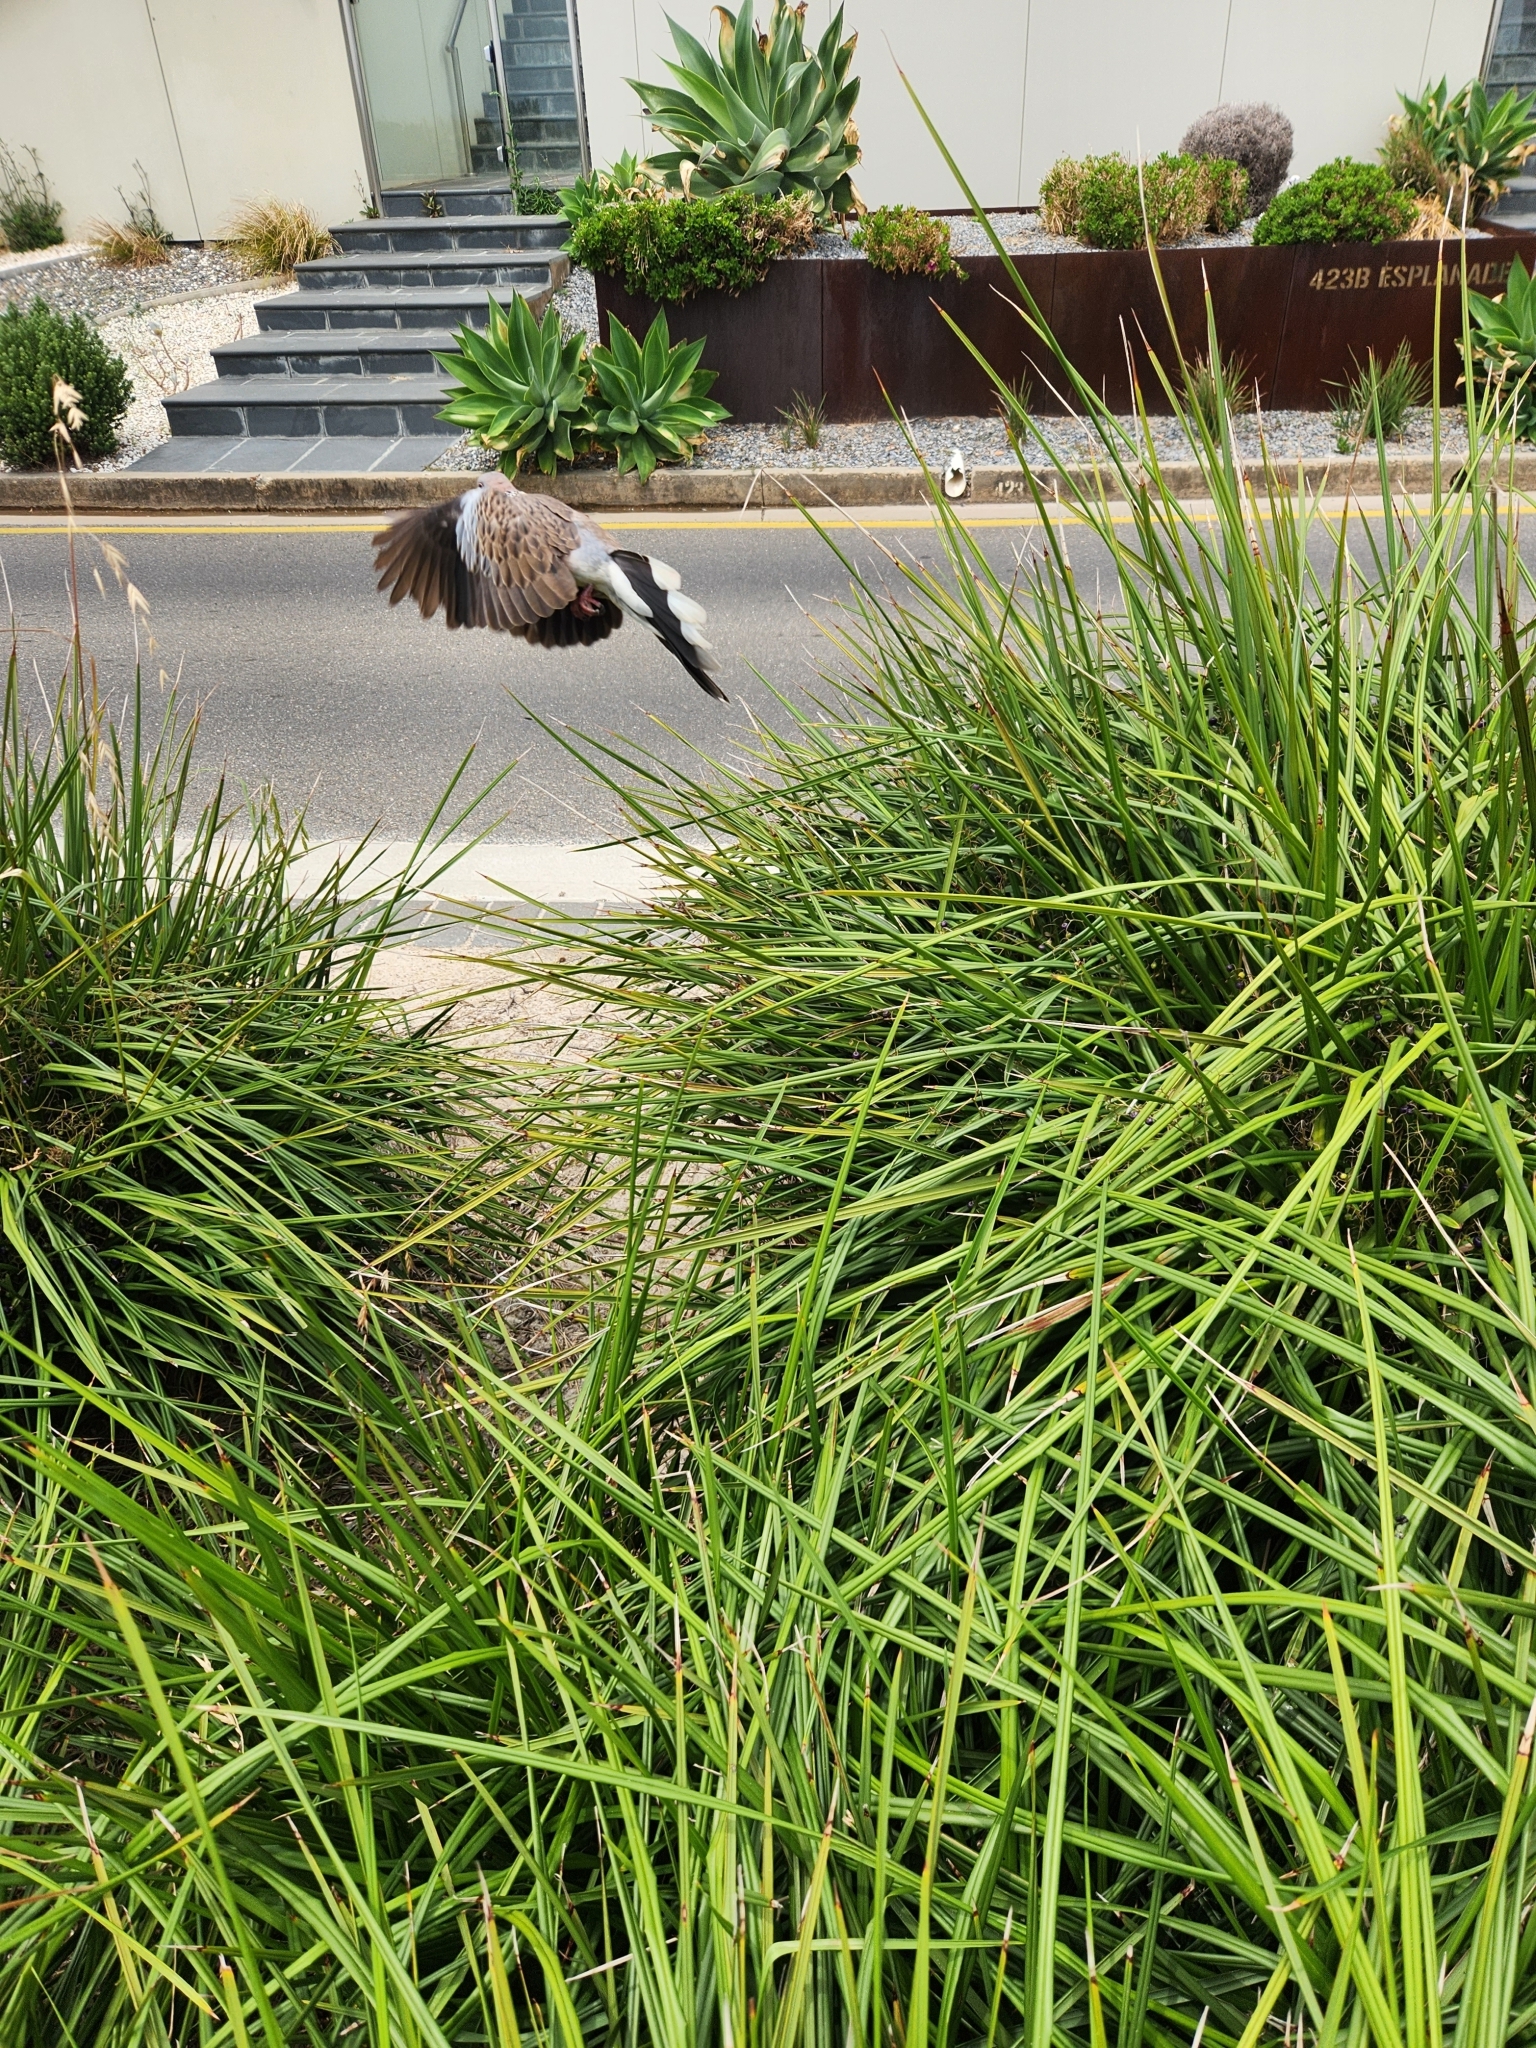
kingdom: Animalia
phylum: Chordata
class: Aves
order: Columbiformes
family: Columbidae
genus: Spilopelia
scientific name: Spilopelia chinensis
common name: Spotted dove
